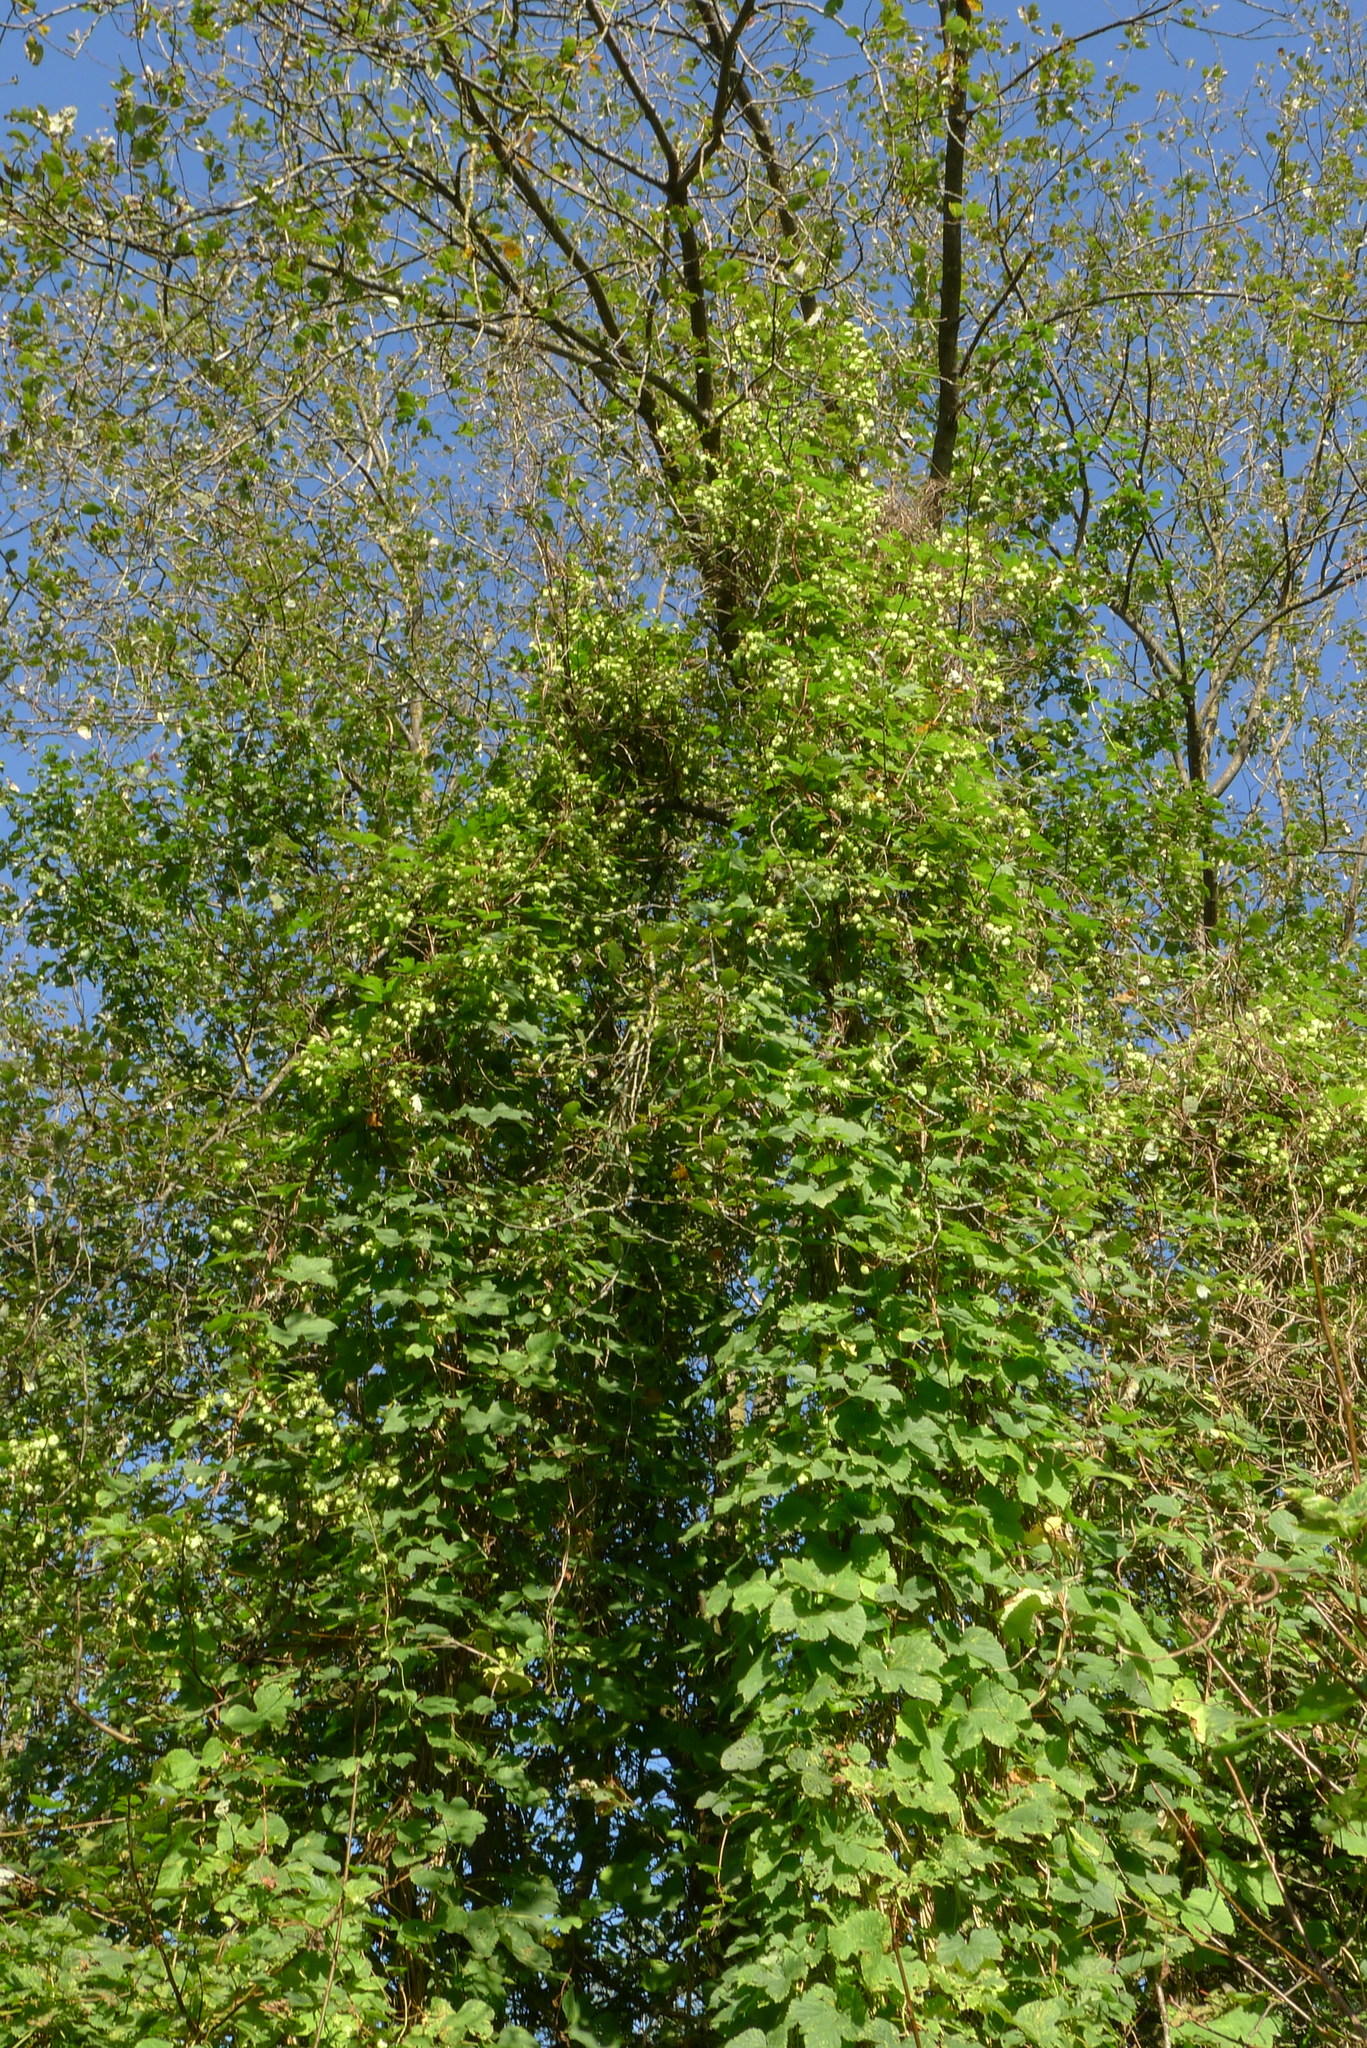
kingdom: Plantae
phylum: Tracheophyta
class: Magnoliopsida
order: Rosales
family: Cannabaceae
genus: Humulus
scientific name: Humulus lupulus
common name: Hop
